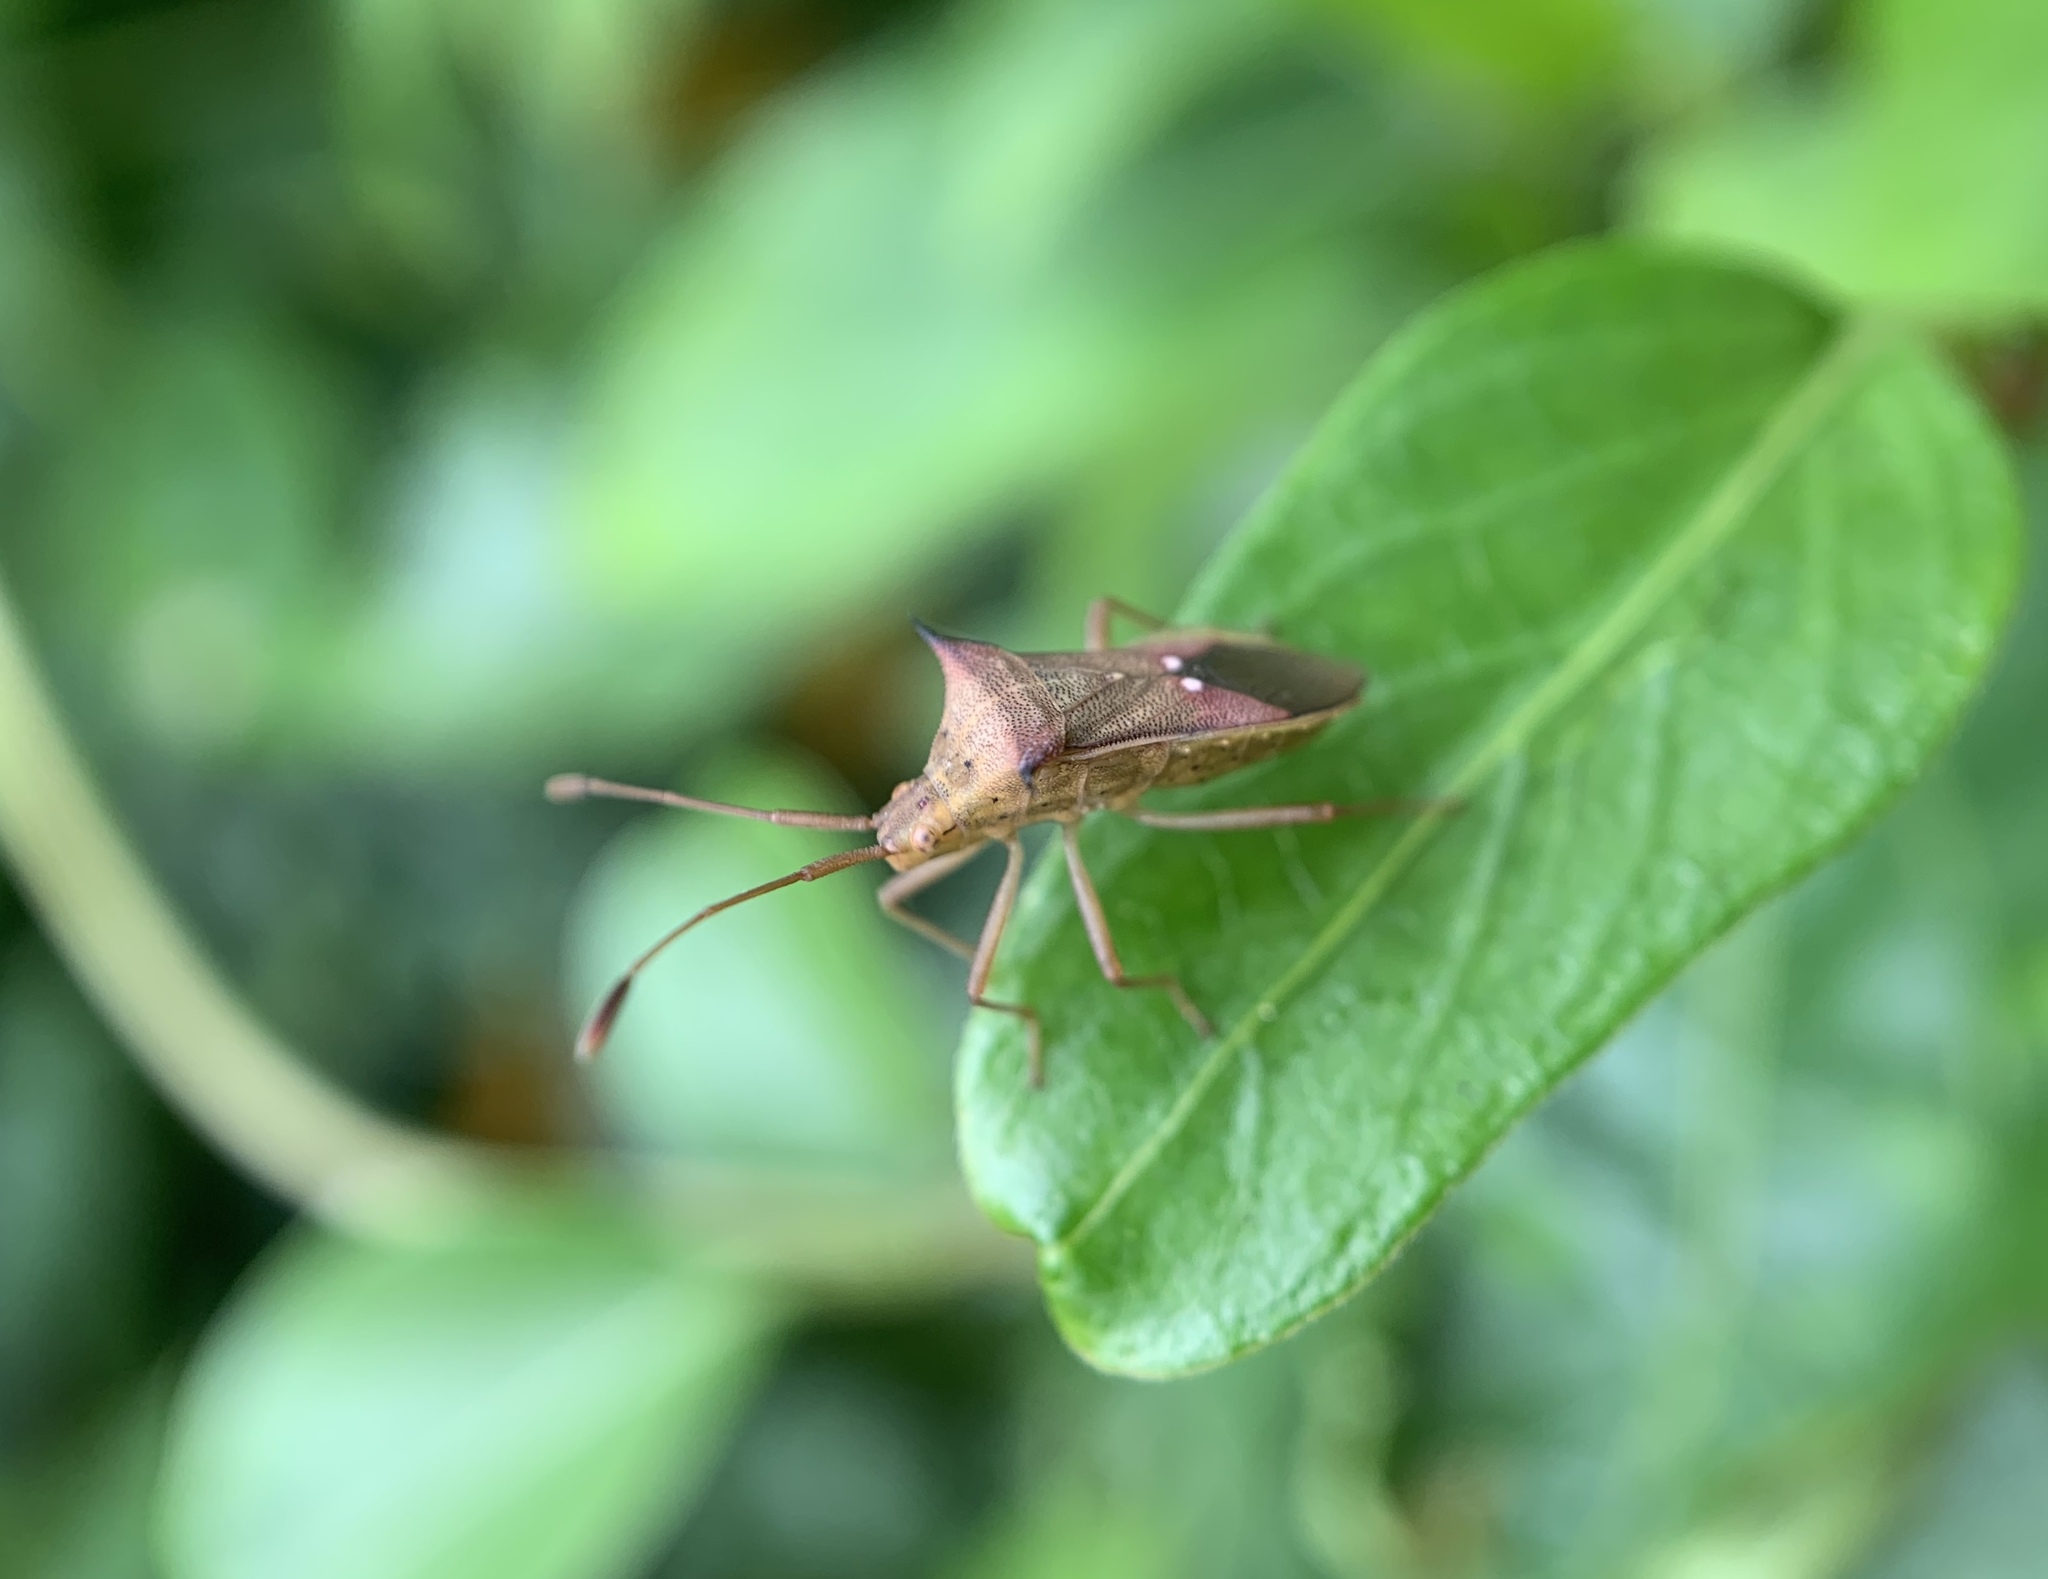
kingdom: Animalia
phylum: Arthropoda
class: Insecta
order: Hemiptera
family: Coreidae
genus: Cletus
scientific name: Cletus trigonus
